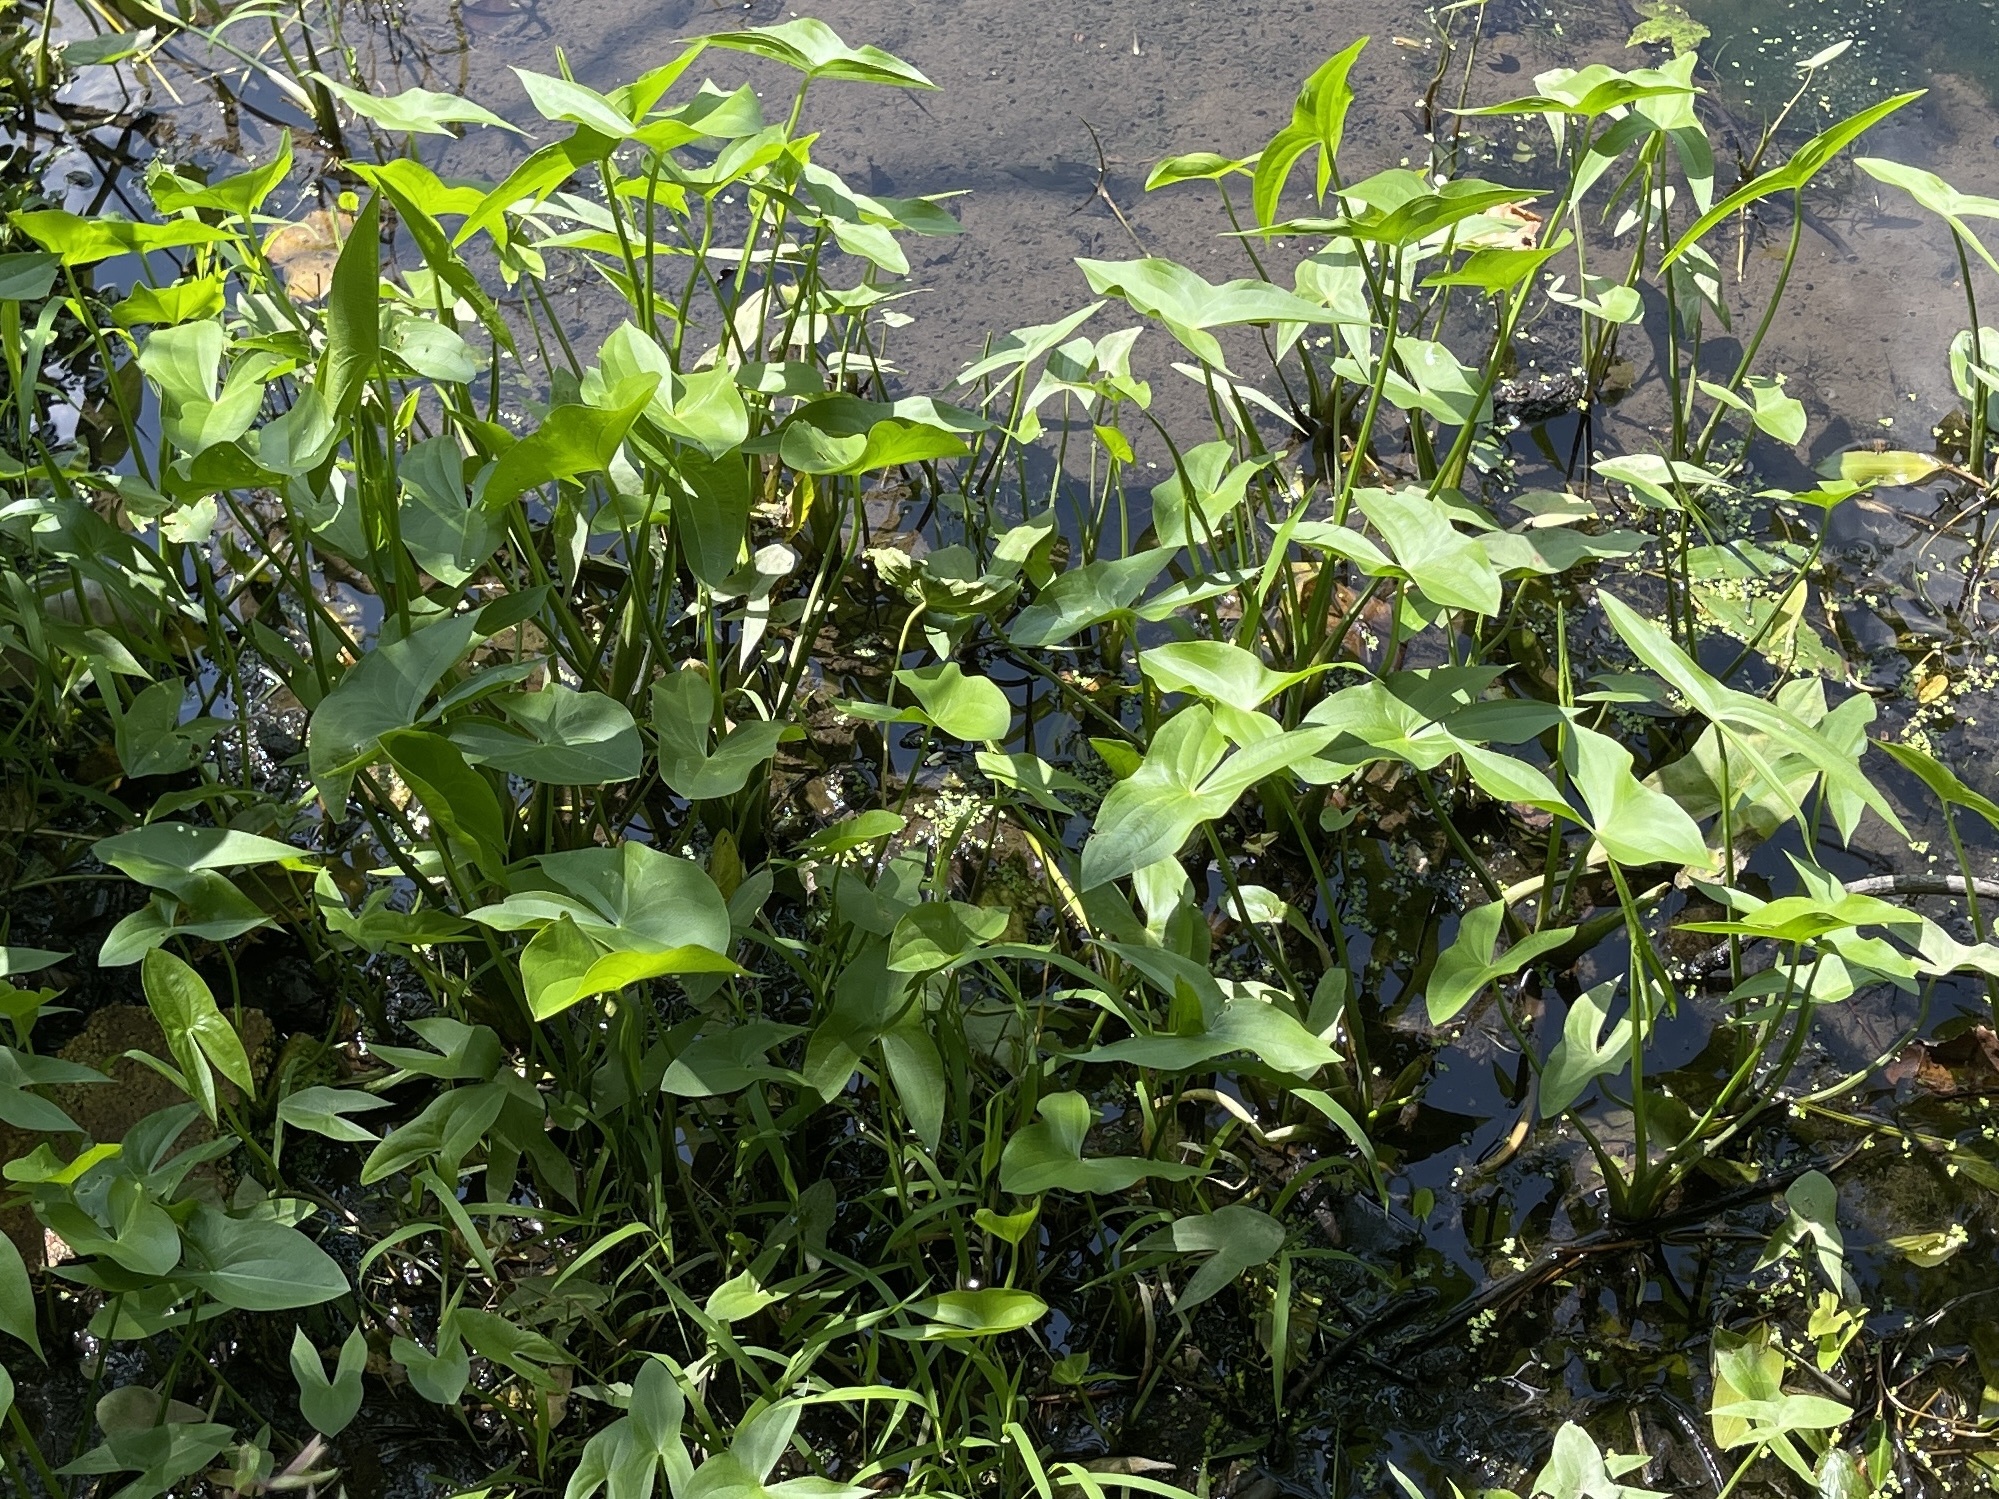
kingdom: Plantae
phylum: Tracheophyta
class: Liliopsida
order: Alismatales
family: Alismataceae
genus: Sagittaria
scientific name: Sagittaria
